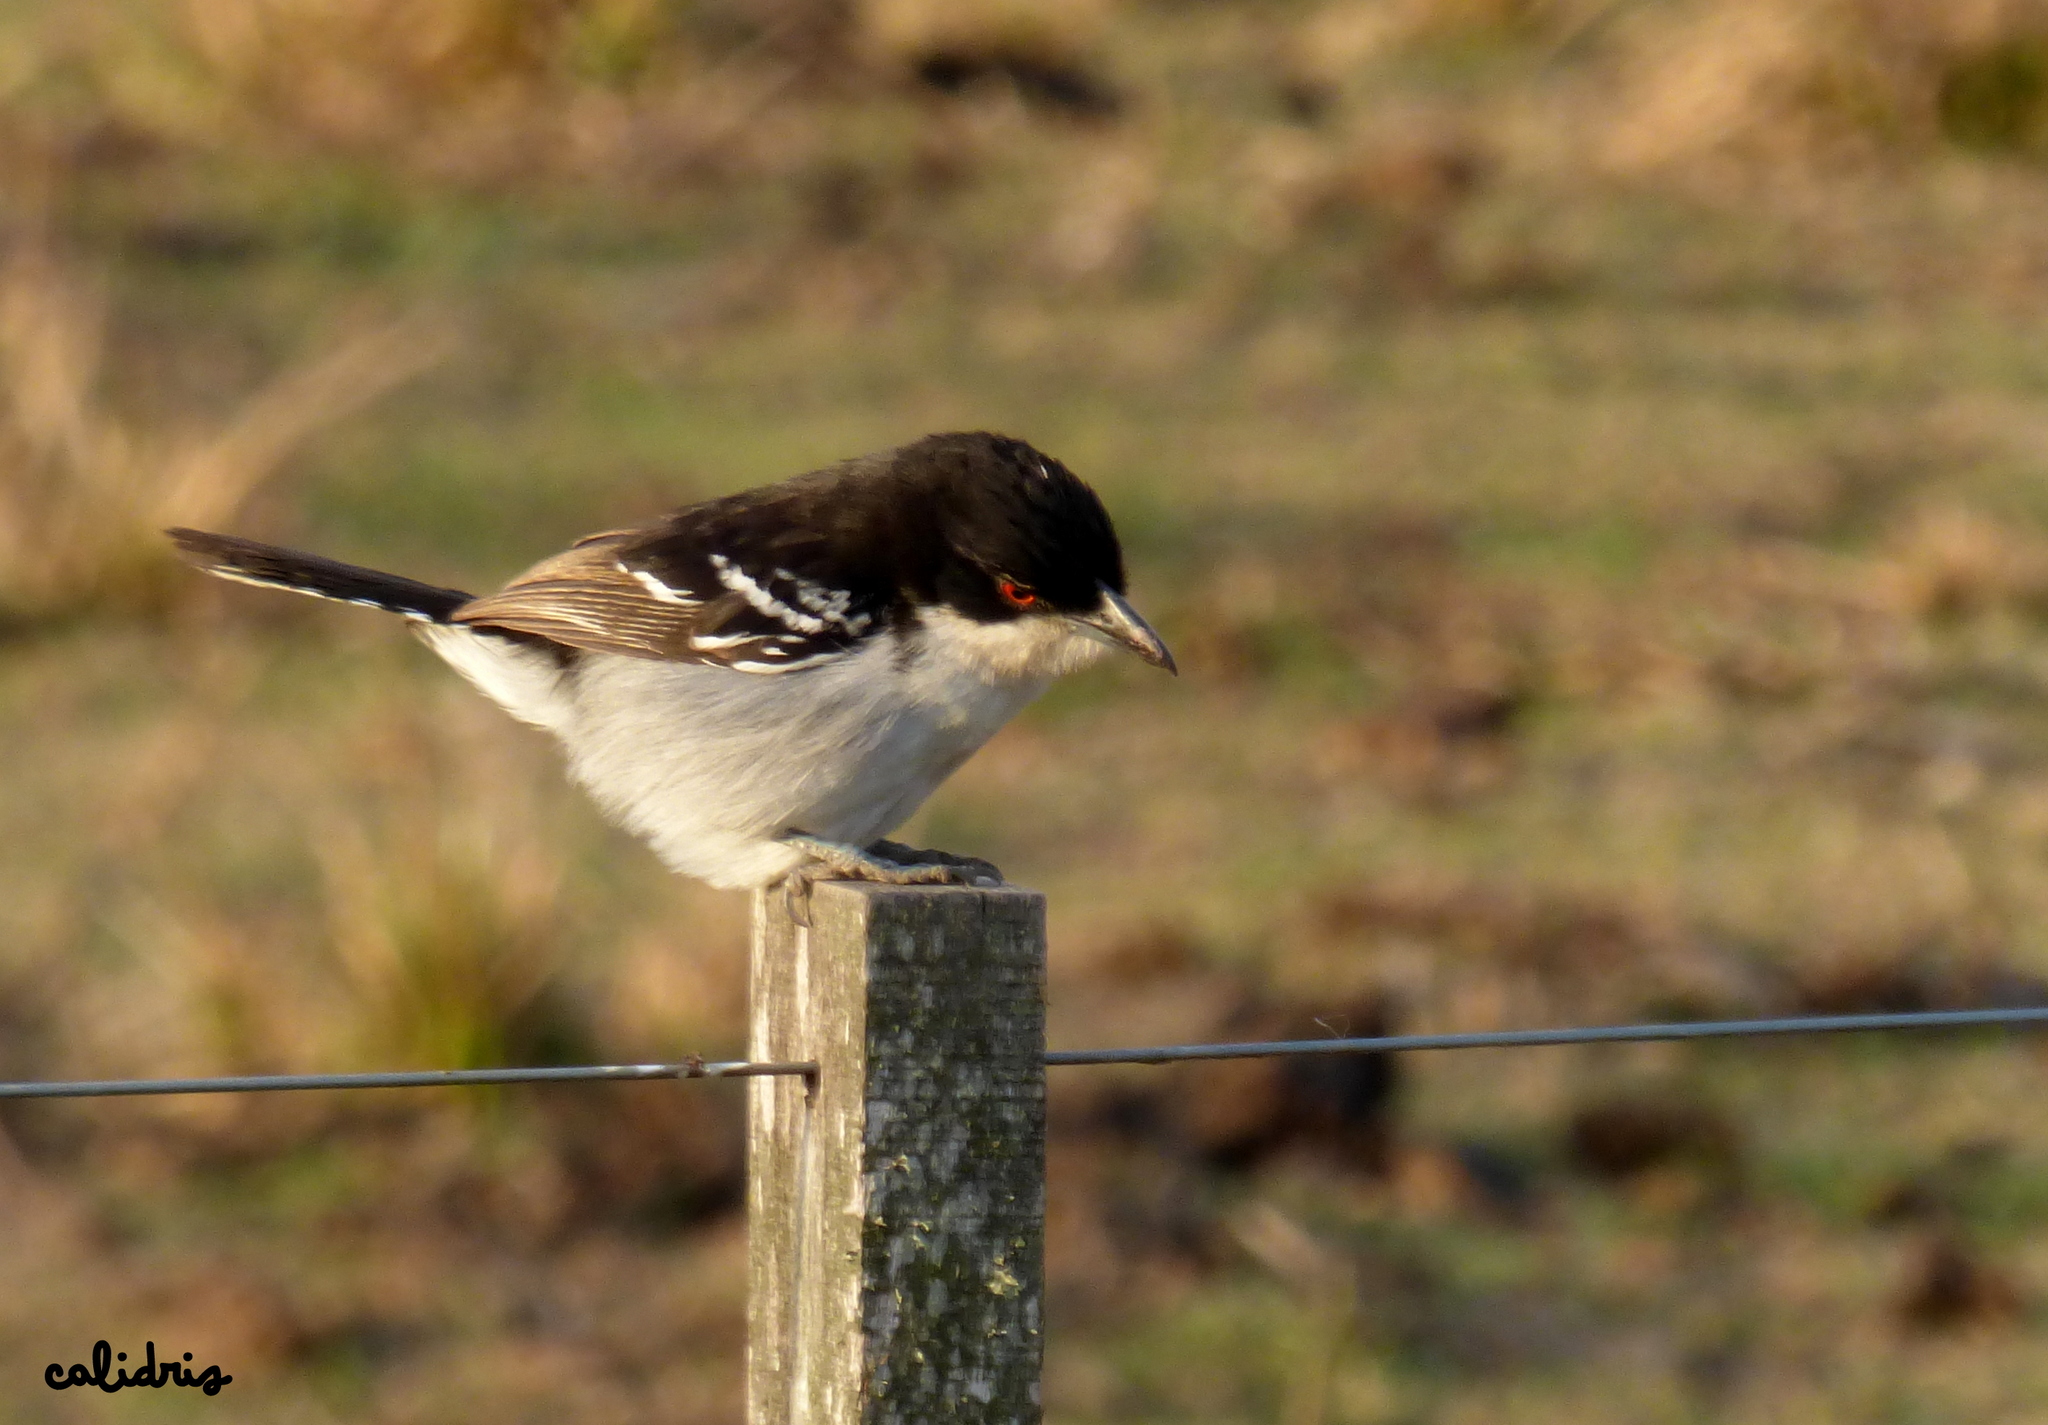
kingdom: Animalia
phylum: Chordata
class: Aves
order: Passeriformes
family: Thamnophilidae
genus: Taraba
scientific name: Taraba major
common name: Great antshrike
